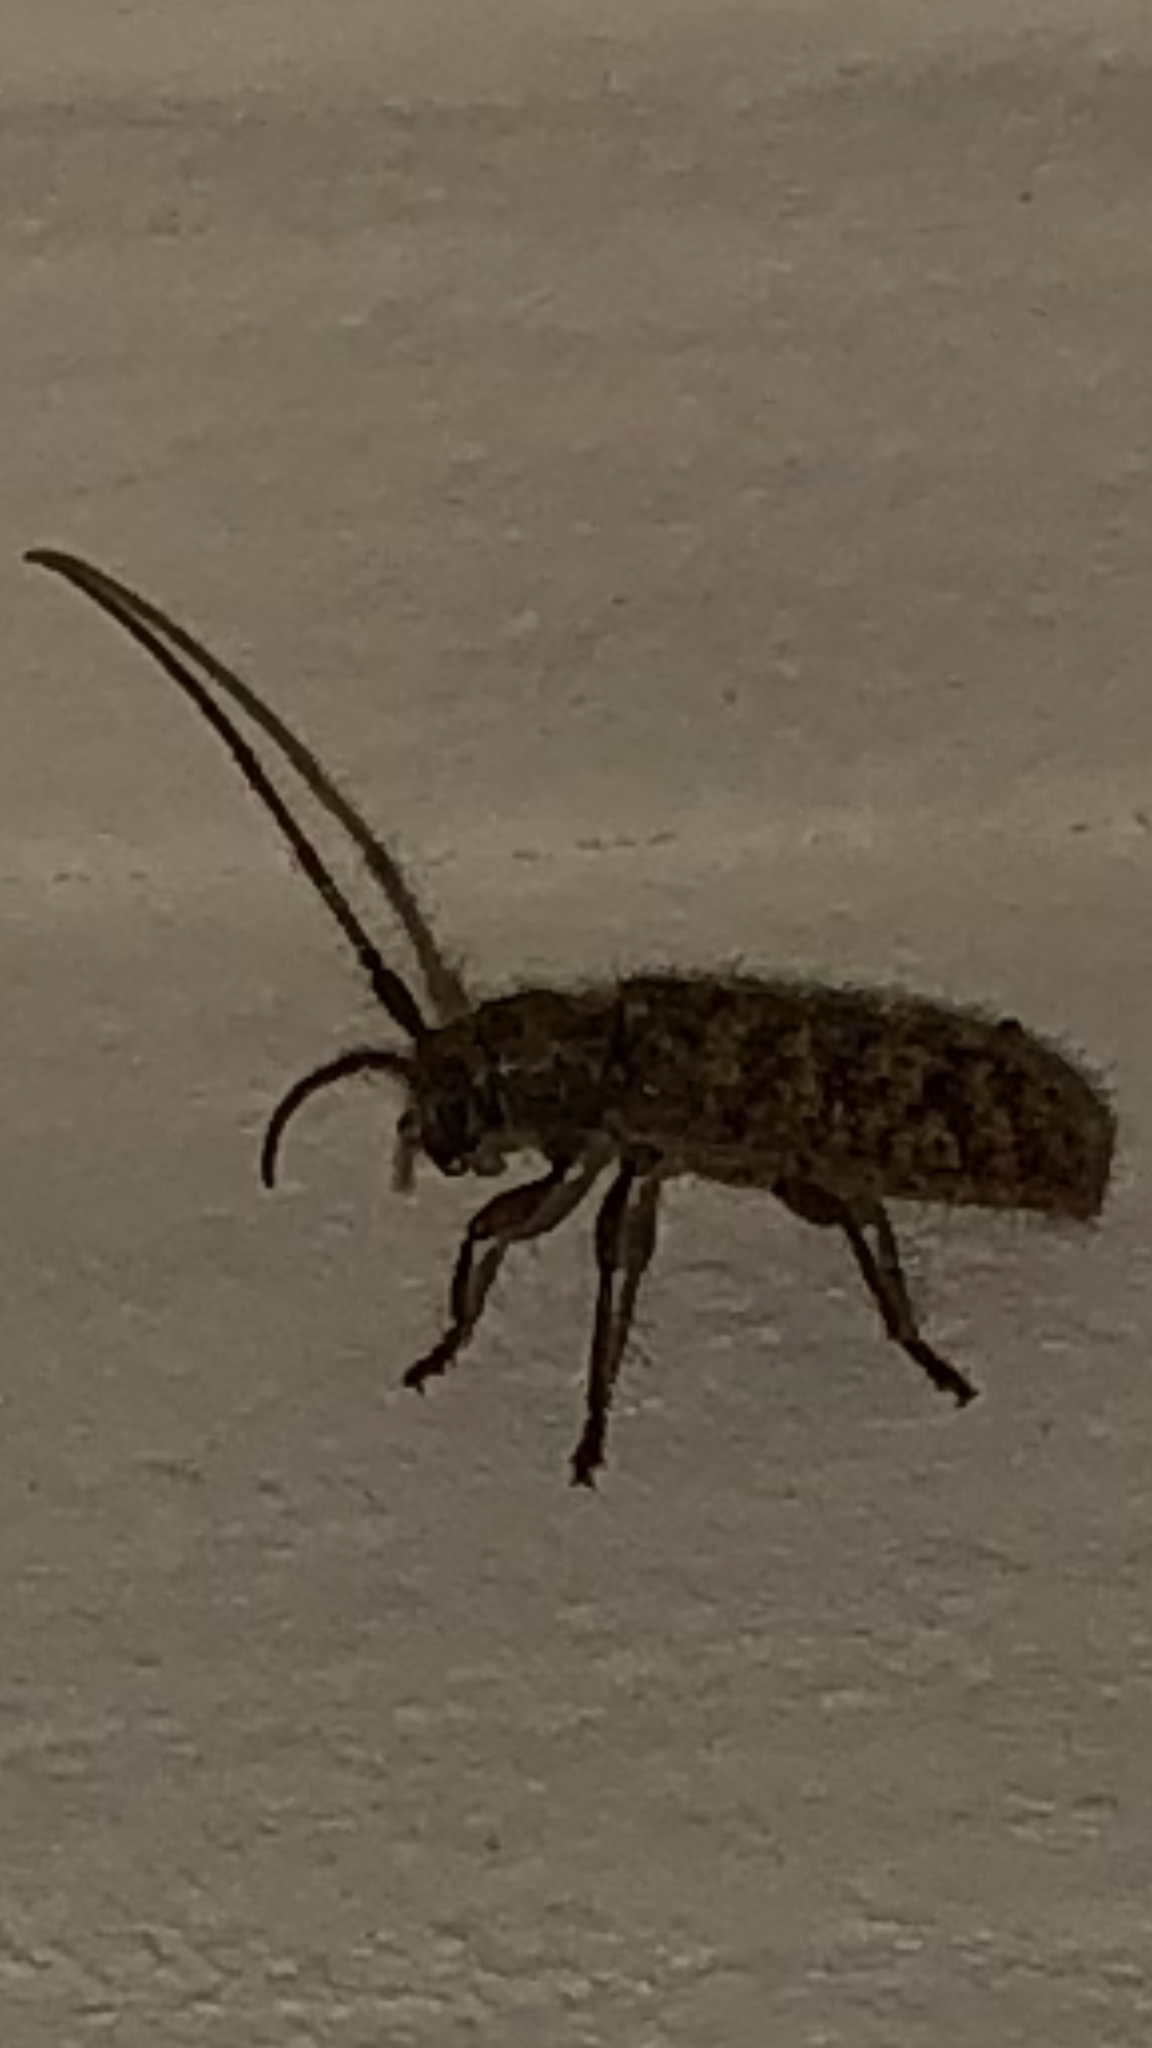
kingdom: Animalia
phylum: Arthropoda
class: Insecta
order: Coleoptera
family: Cerambycidae
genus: Eupogonius
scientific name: Eupogonius pauper
